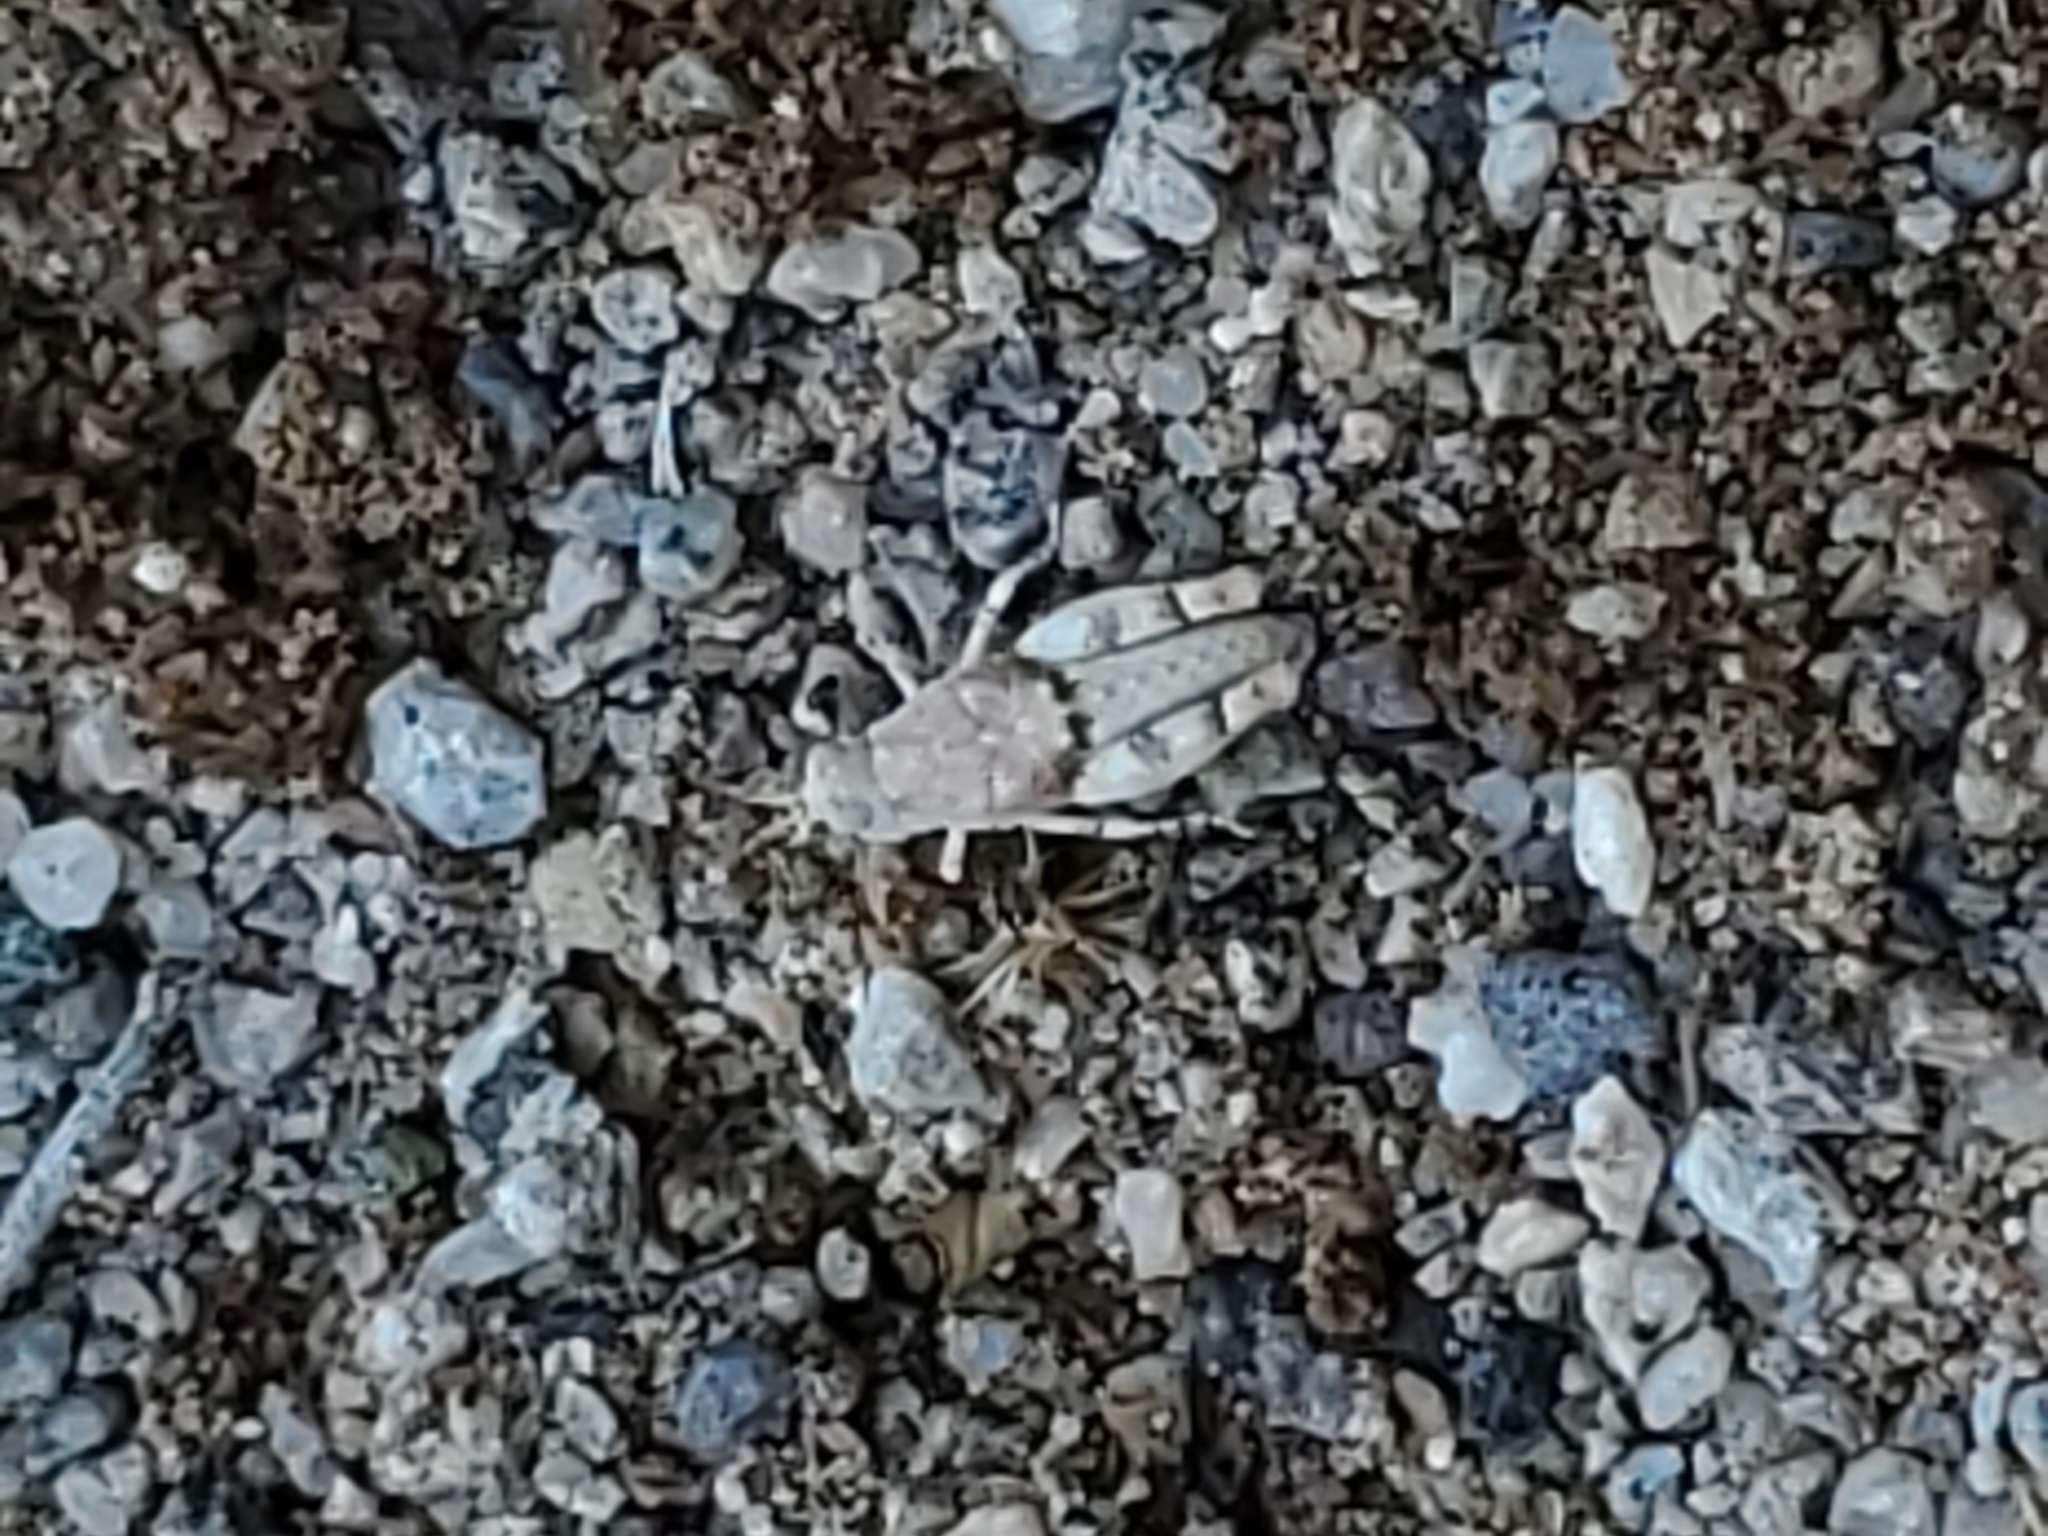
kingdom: Animalia
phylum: Arthropoda
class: Insecta
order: Orthoptera
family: Acrididae
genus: Cibolacris
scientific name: Cibolacris parviceps
